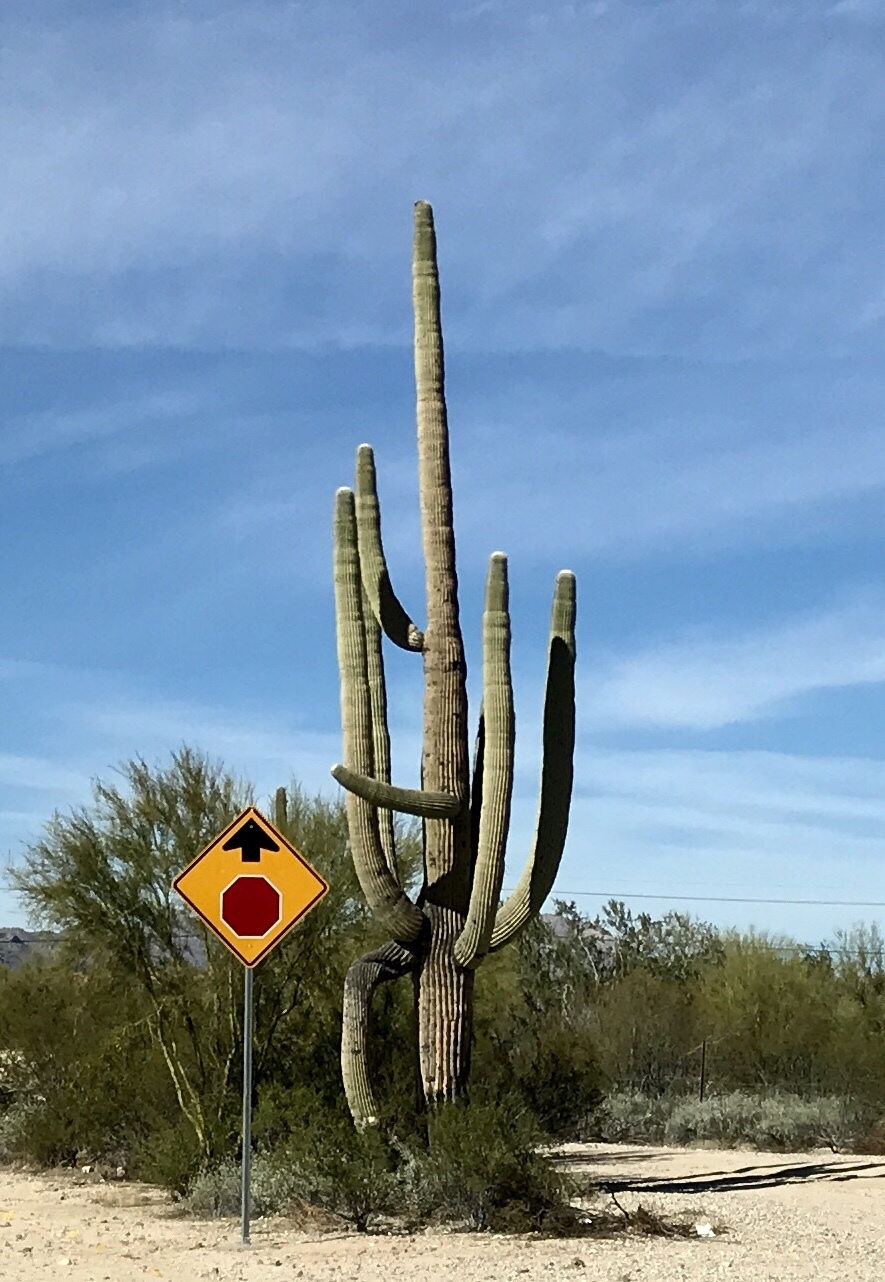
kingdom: Plantae
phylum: Tracheophyta
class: Magnoliopsida
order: Caryophyllales
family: Cactaceae
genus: Carnegiea
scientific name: Carnegiea gigantea
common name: Saguaro
